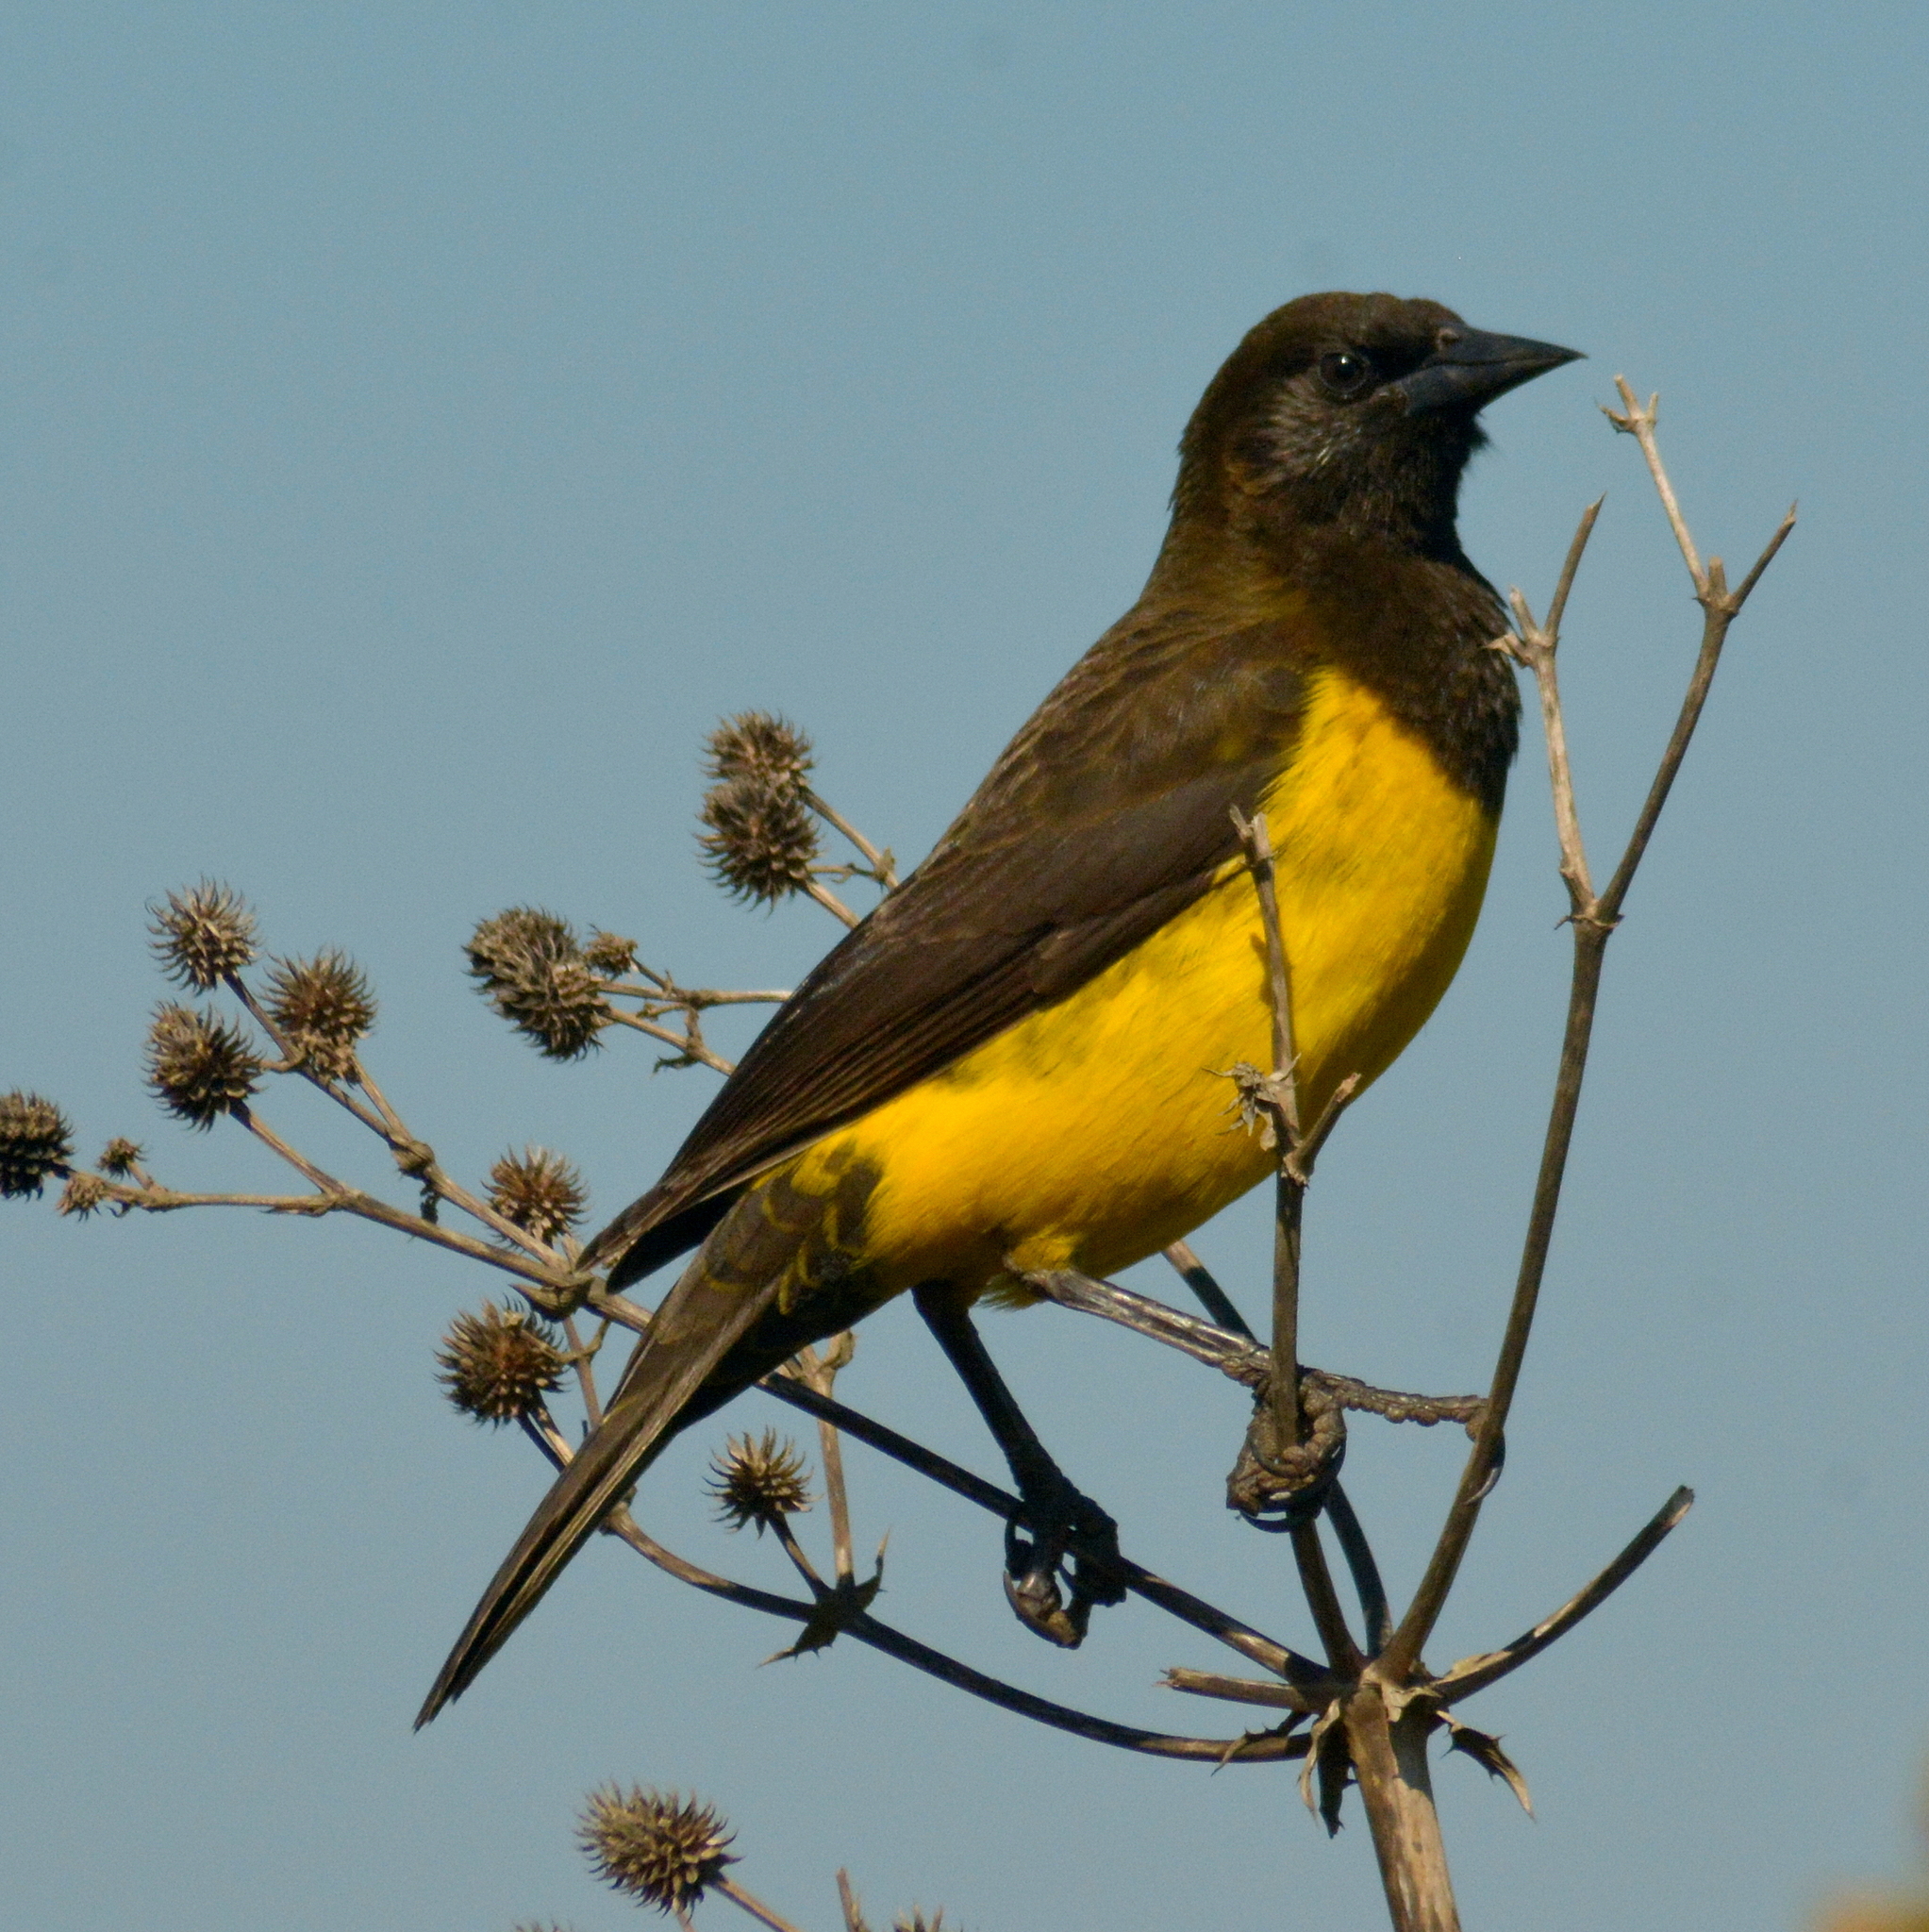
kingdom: Animalia
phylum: Chordata
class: Aves
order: Passeriformes
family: Icteridae
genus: Pseudoleistes
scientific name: Pseudoleistes guirahuro
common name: Yellow-rumped marshbird
